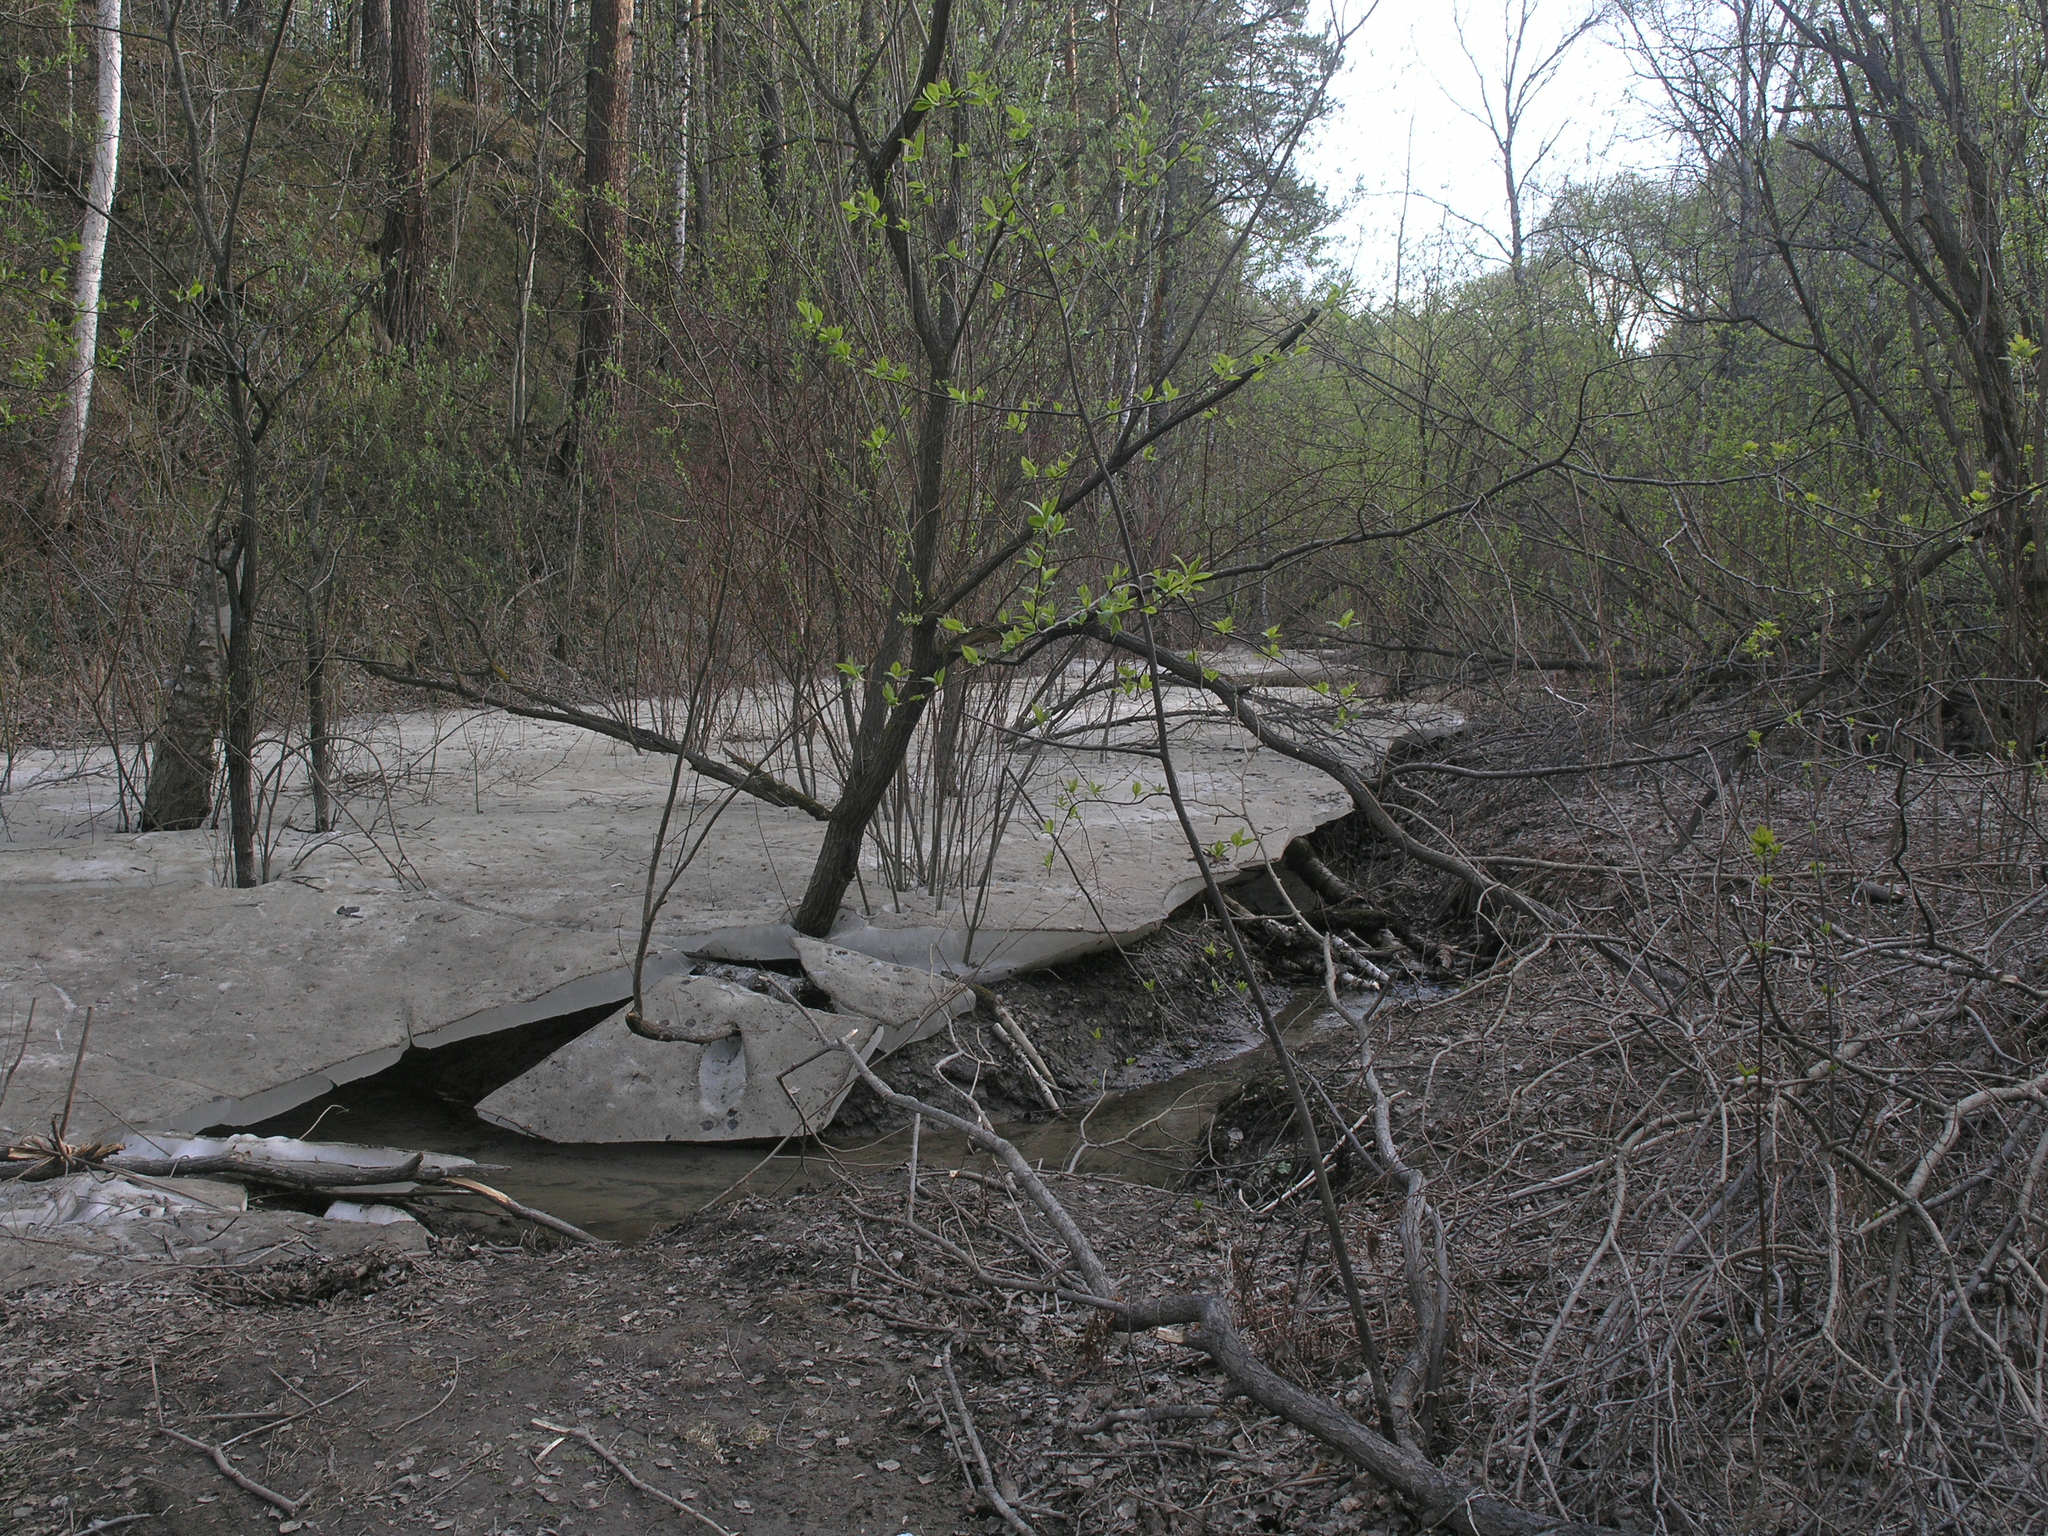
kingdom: Plantae
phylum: Tracheophyta
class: Magnoliopsida
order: Rosales
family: Rosaceae
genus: Prunus
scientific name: Prunus padus
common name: Bird cherry
